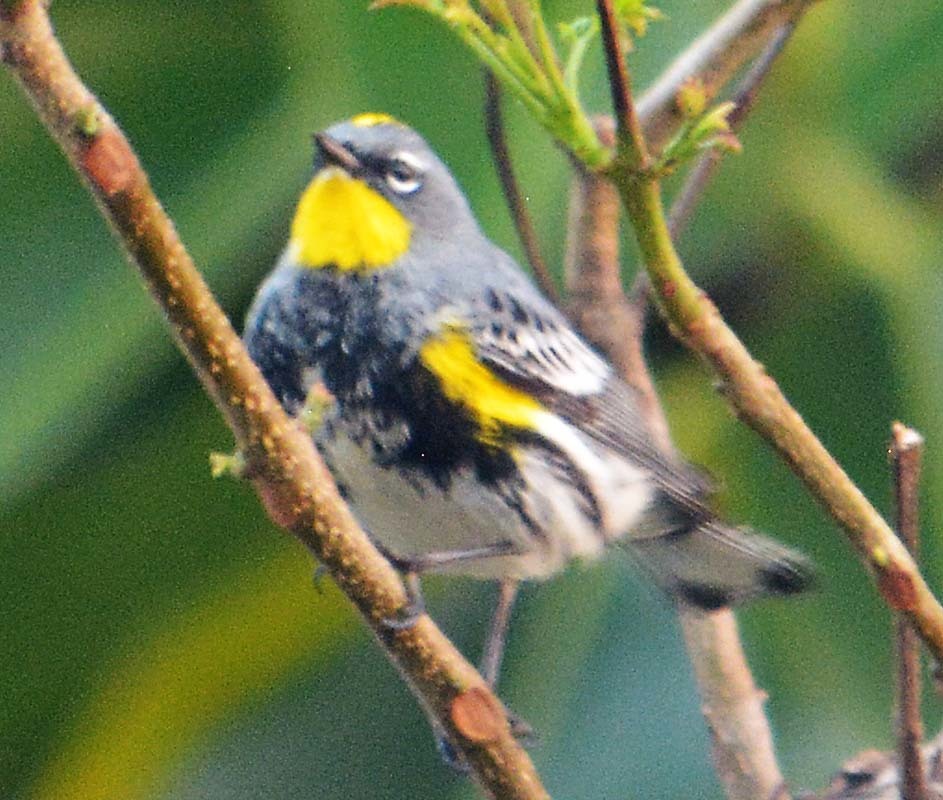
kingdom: Animalia
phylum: Chordata
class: Aves
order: Passeriformes
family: Parulidae
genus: Setophaga
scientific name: Setophaga auduboni
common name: Audubon's warbler
